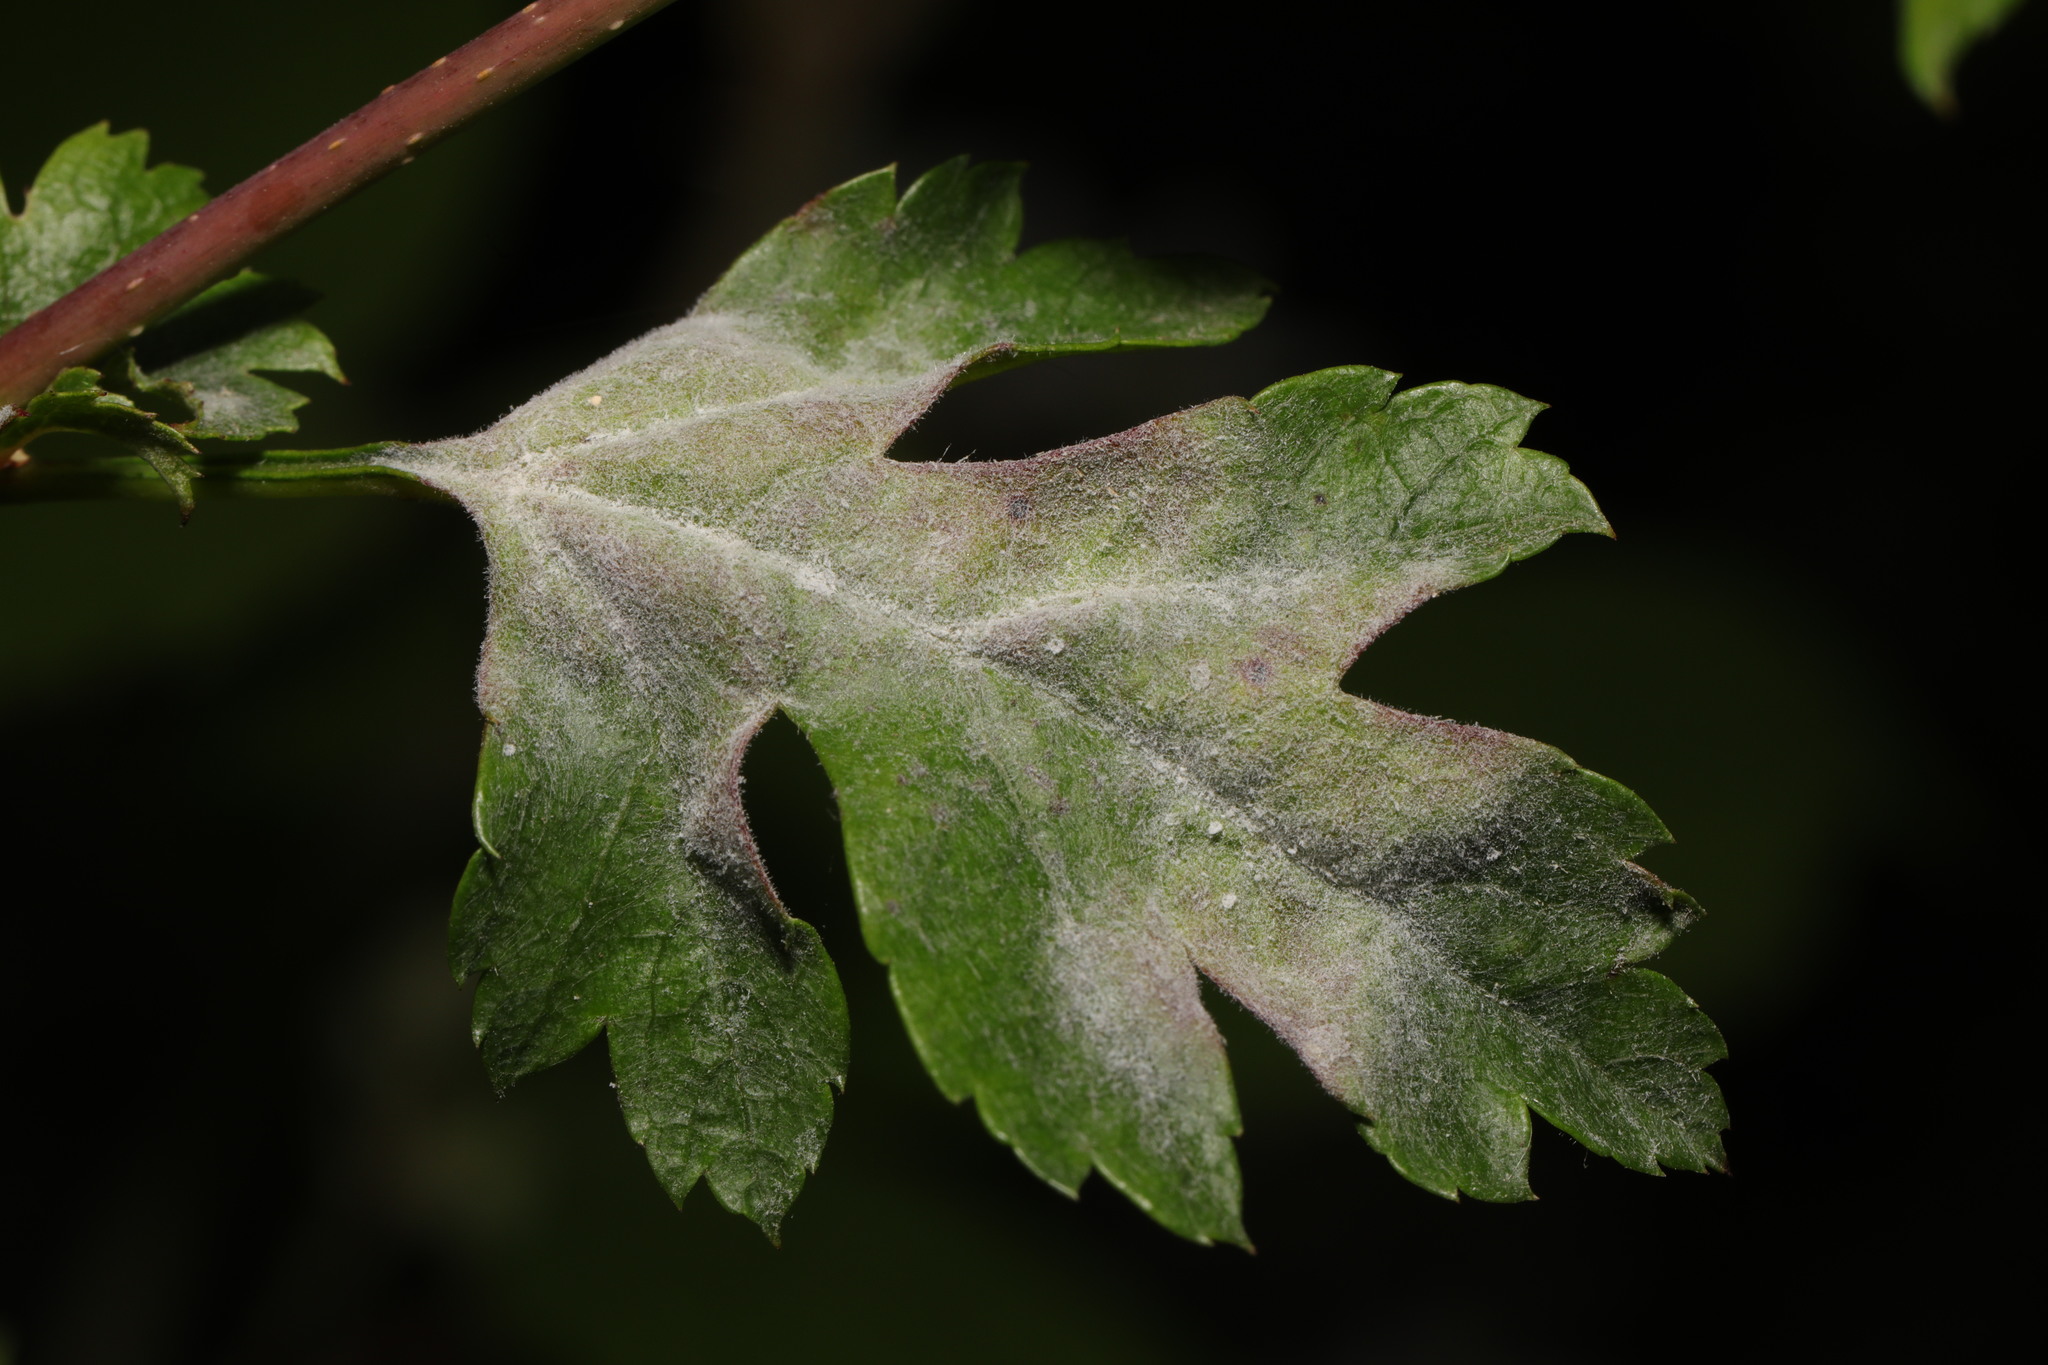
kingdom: Plantae
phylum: Tracheophyta
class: Magnoliopsida
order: Rosales
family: Rosaceae
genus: Crataegus
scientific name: Crataegus monogyna
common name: Hawthorn
